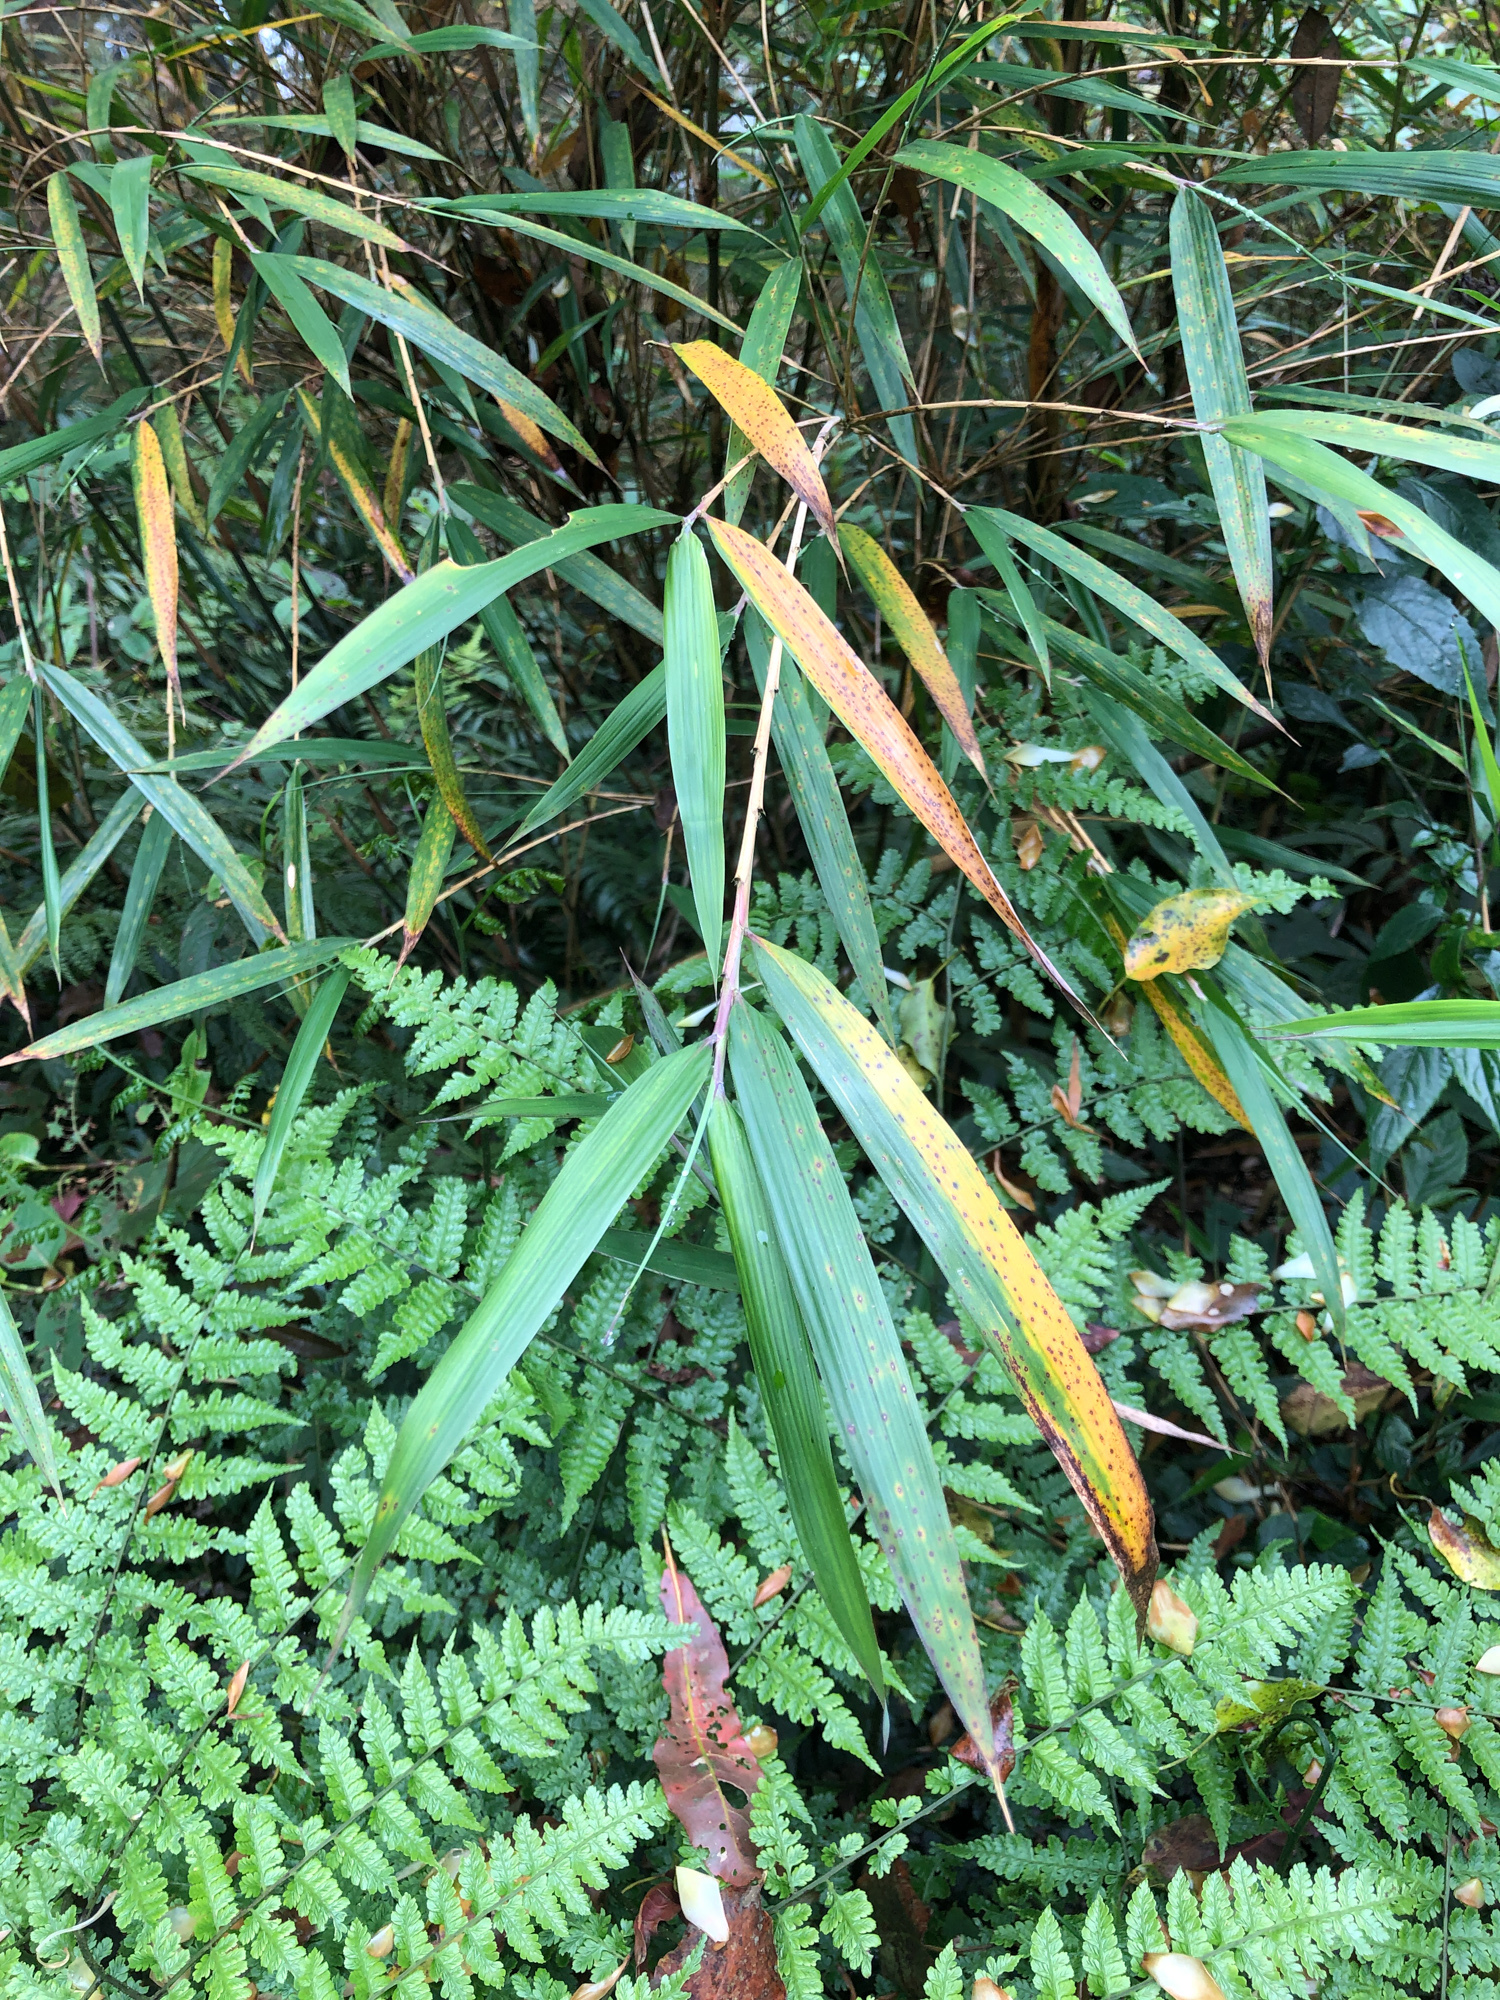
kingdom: Plantae
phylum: Tracheophyta
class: Liliopsida
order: Poales
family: Poaceae
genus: Yushania
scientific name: Yushania niitakayamensis
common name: Yushan cane
